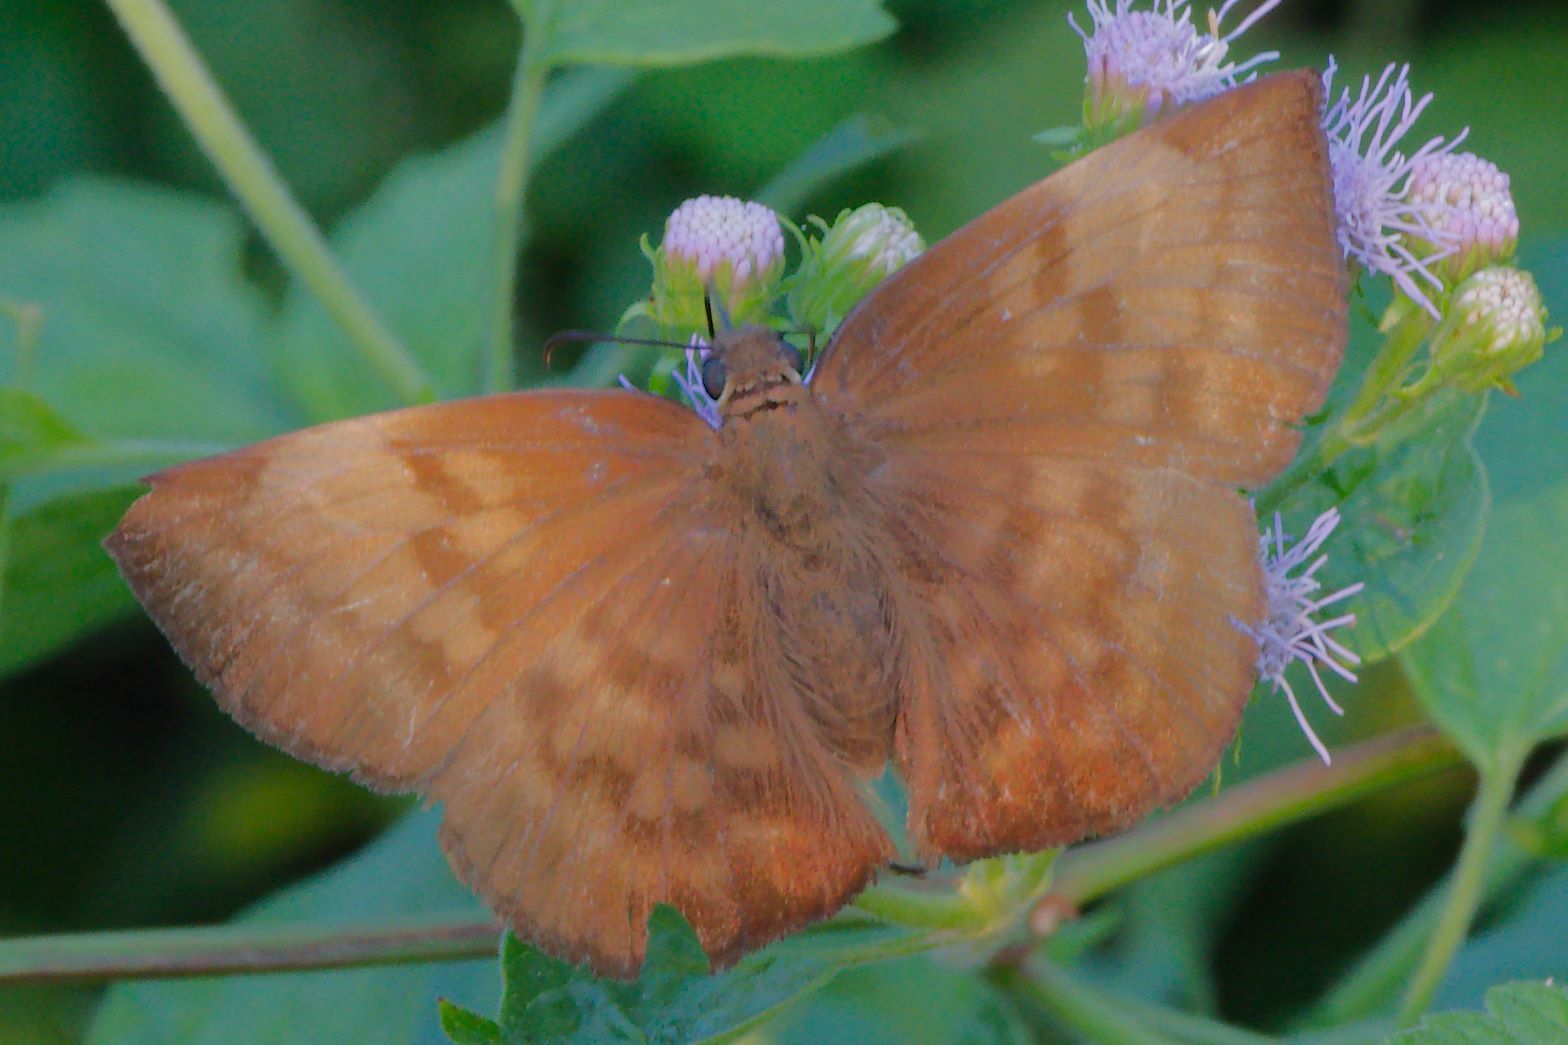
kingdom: Animalia
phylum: Arthropoda
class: Insecta
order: Lepidoptera
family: Hesperiidae
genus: Achlyodes
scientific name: Achlyodes pallida
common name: Pale sicklewing
